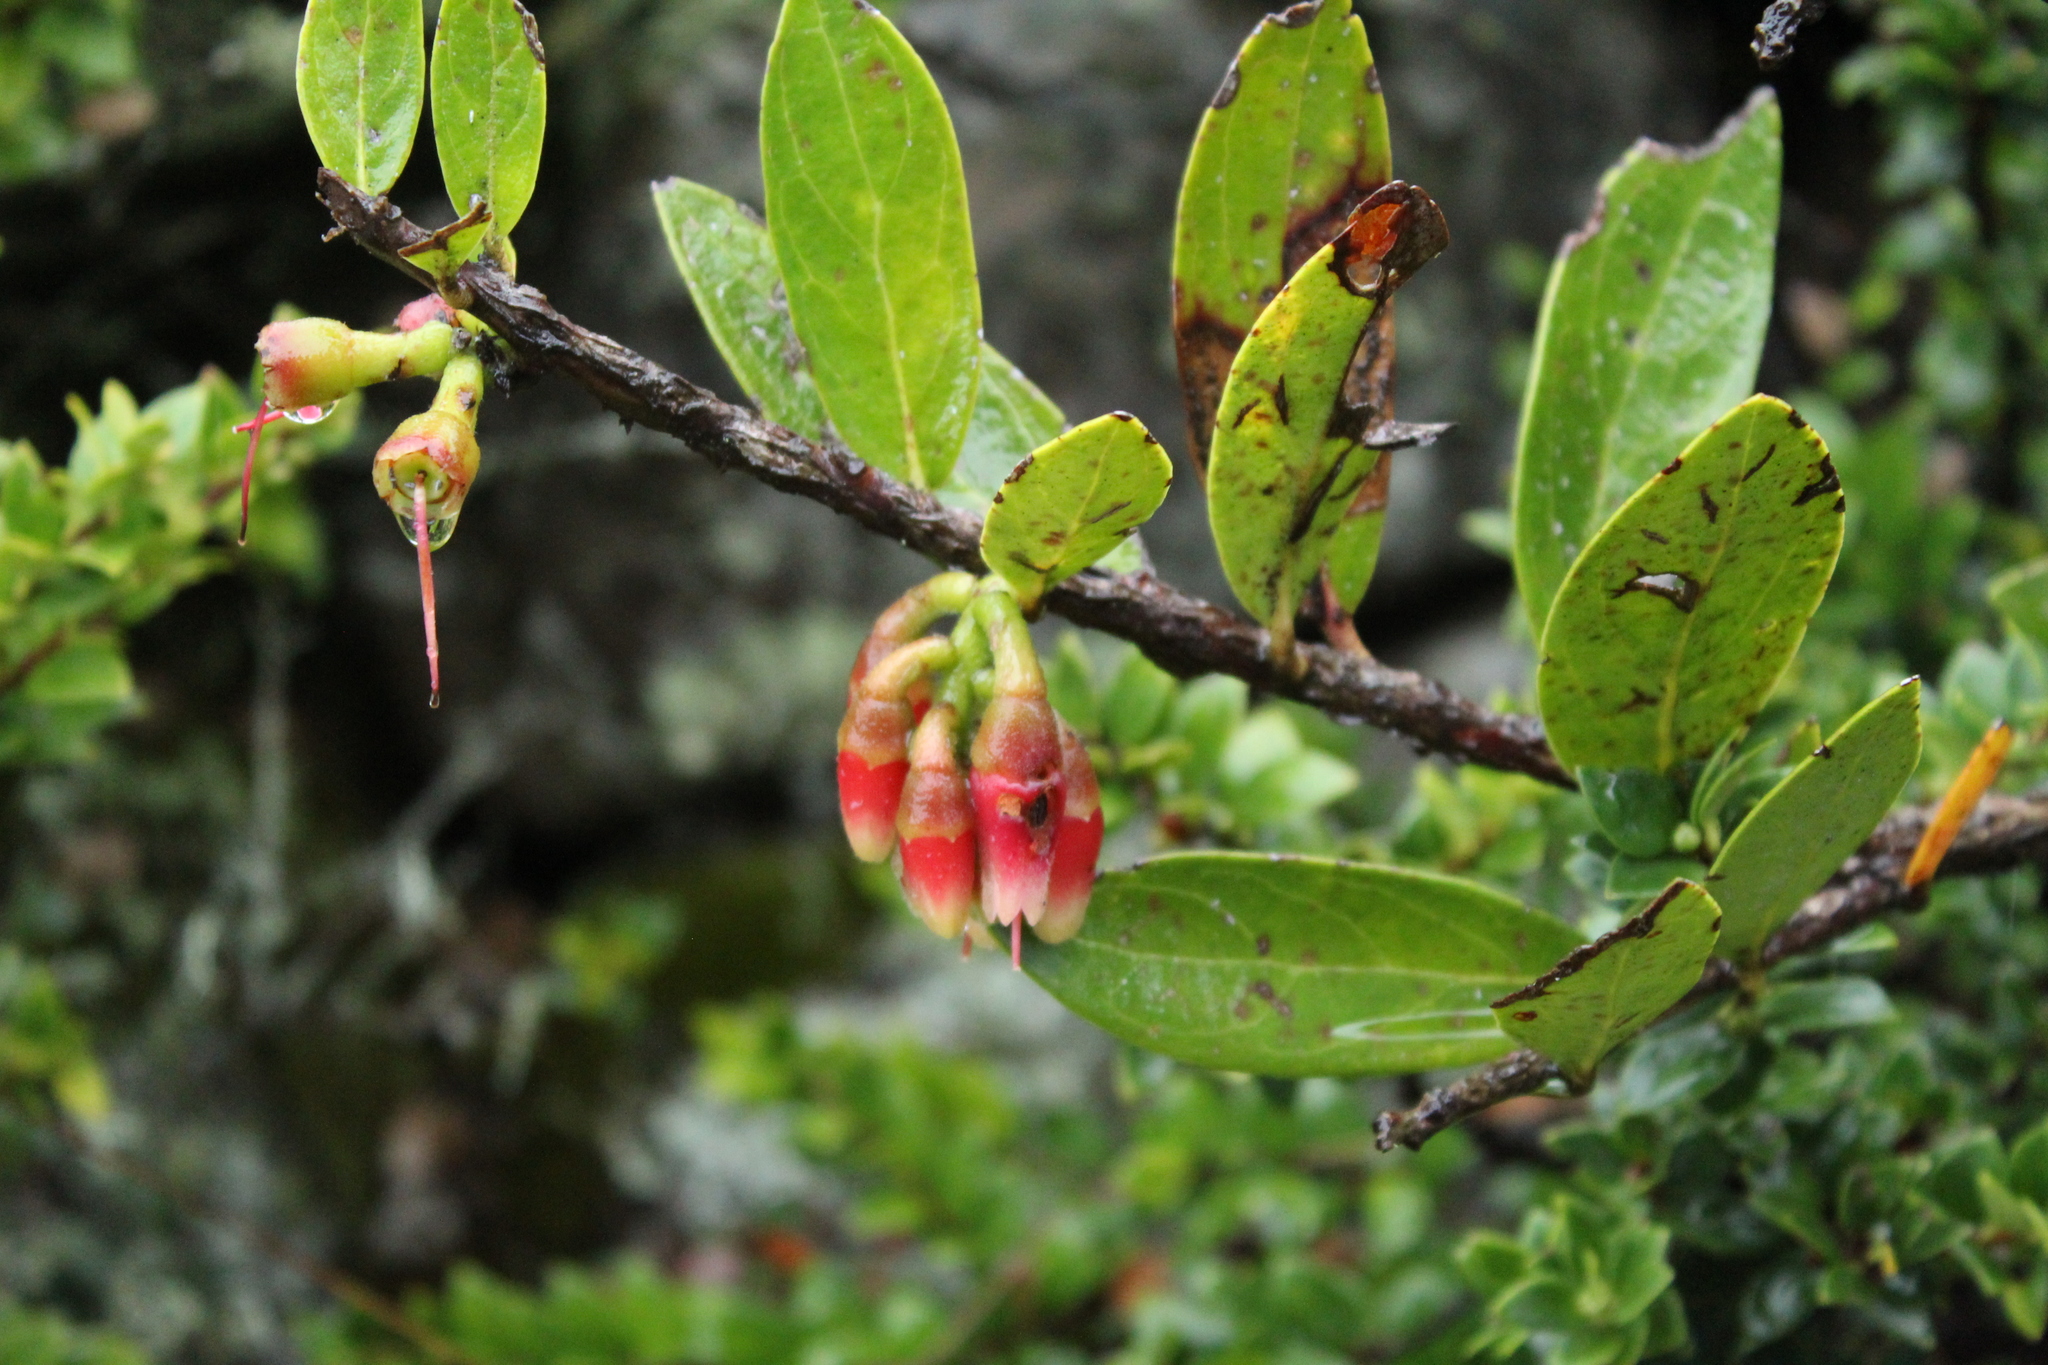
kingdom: Plantae
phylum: Tracheophyta
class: Magnoliopsida
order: Ericales
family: Ericaceae
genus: Macleania
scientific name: Macleania rupestris
